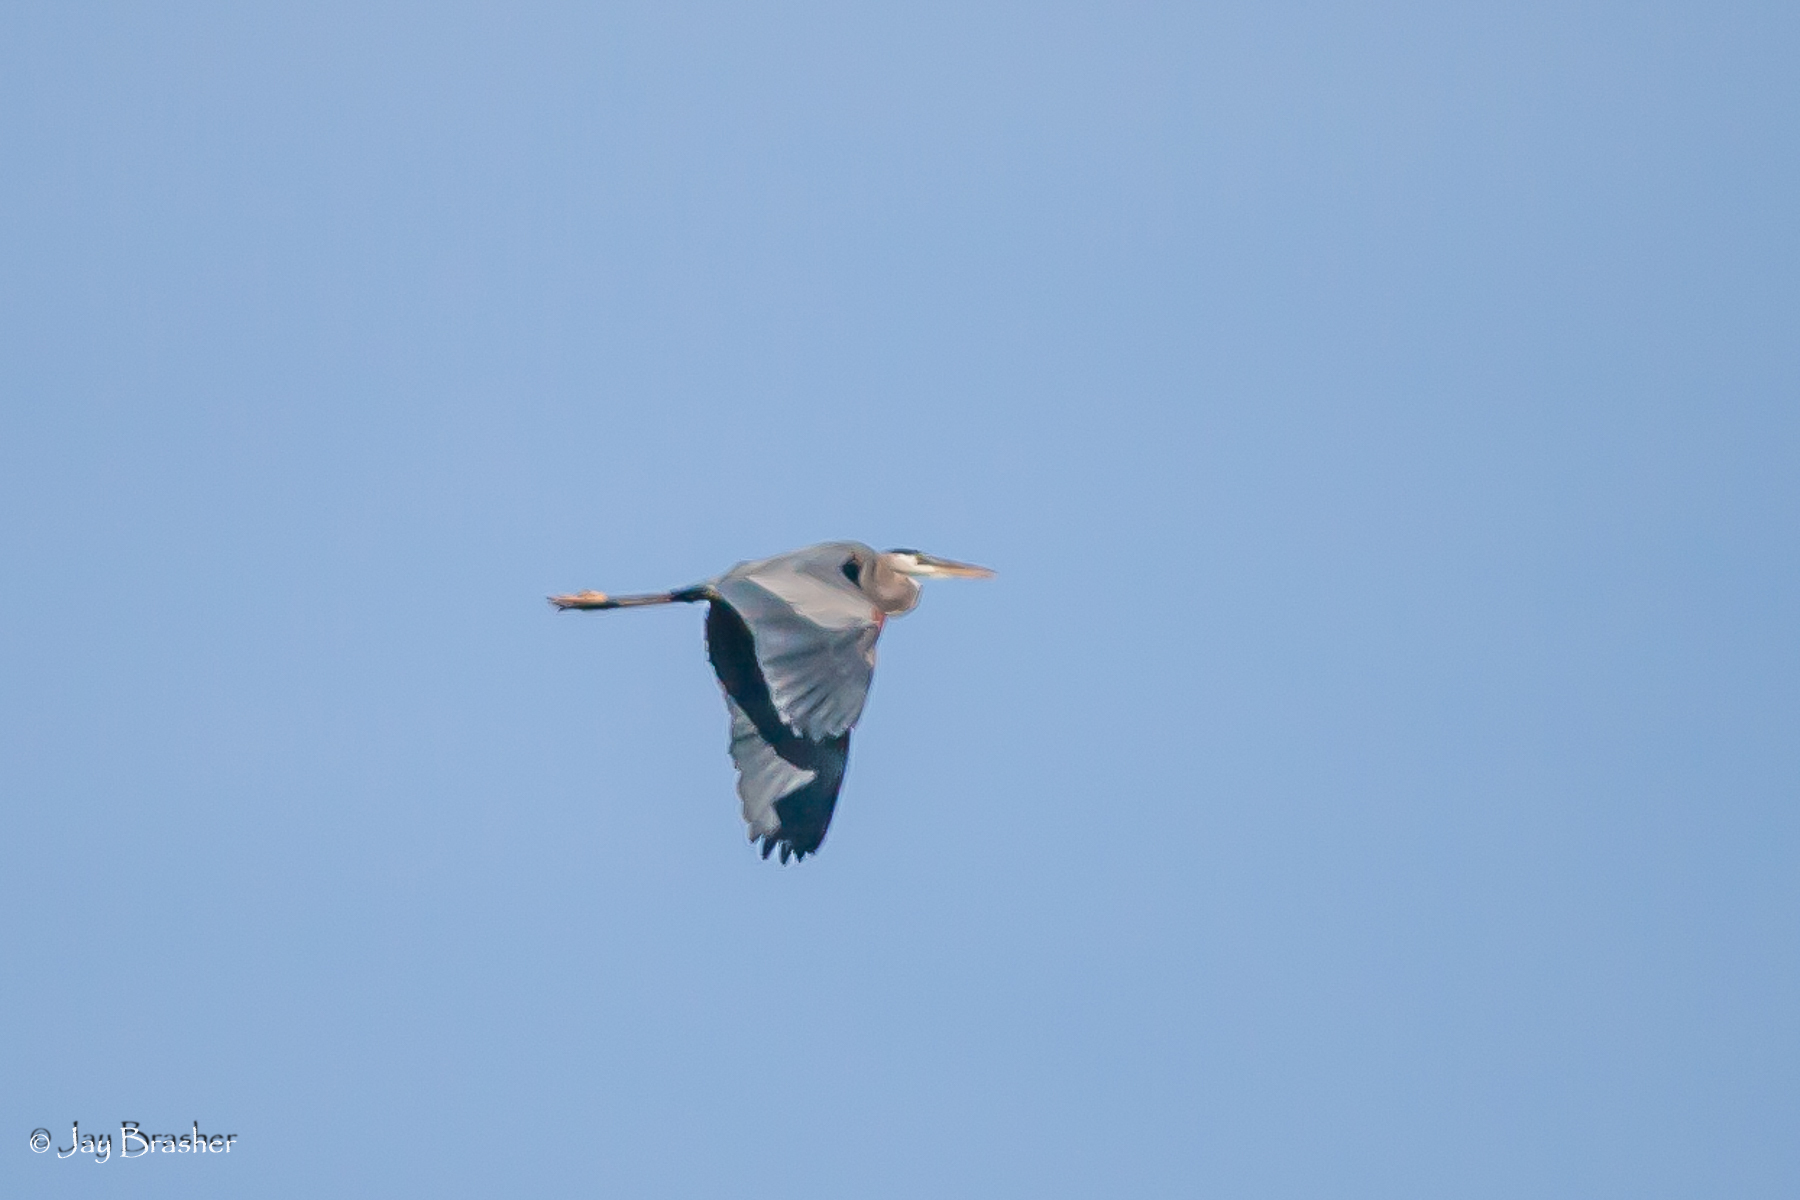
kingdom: Animalia
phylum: Chordata
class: Aves
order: Pelecaniformes
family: Ardeidae
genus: Ardea
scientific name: Ardea herodias
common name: Great blue heron
